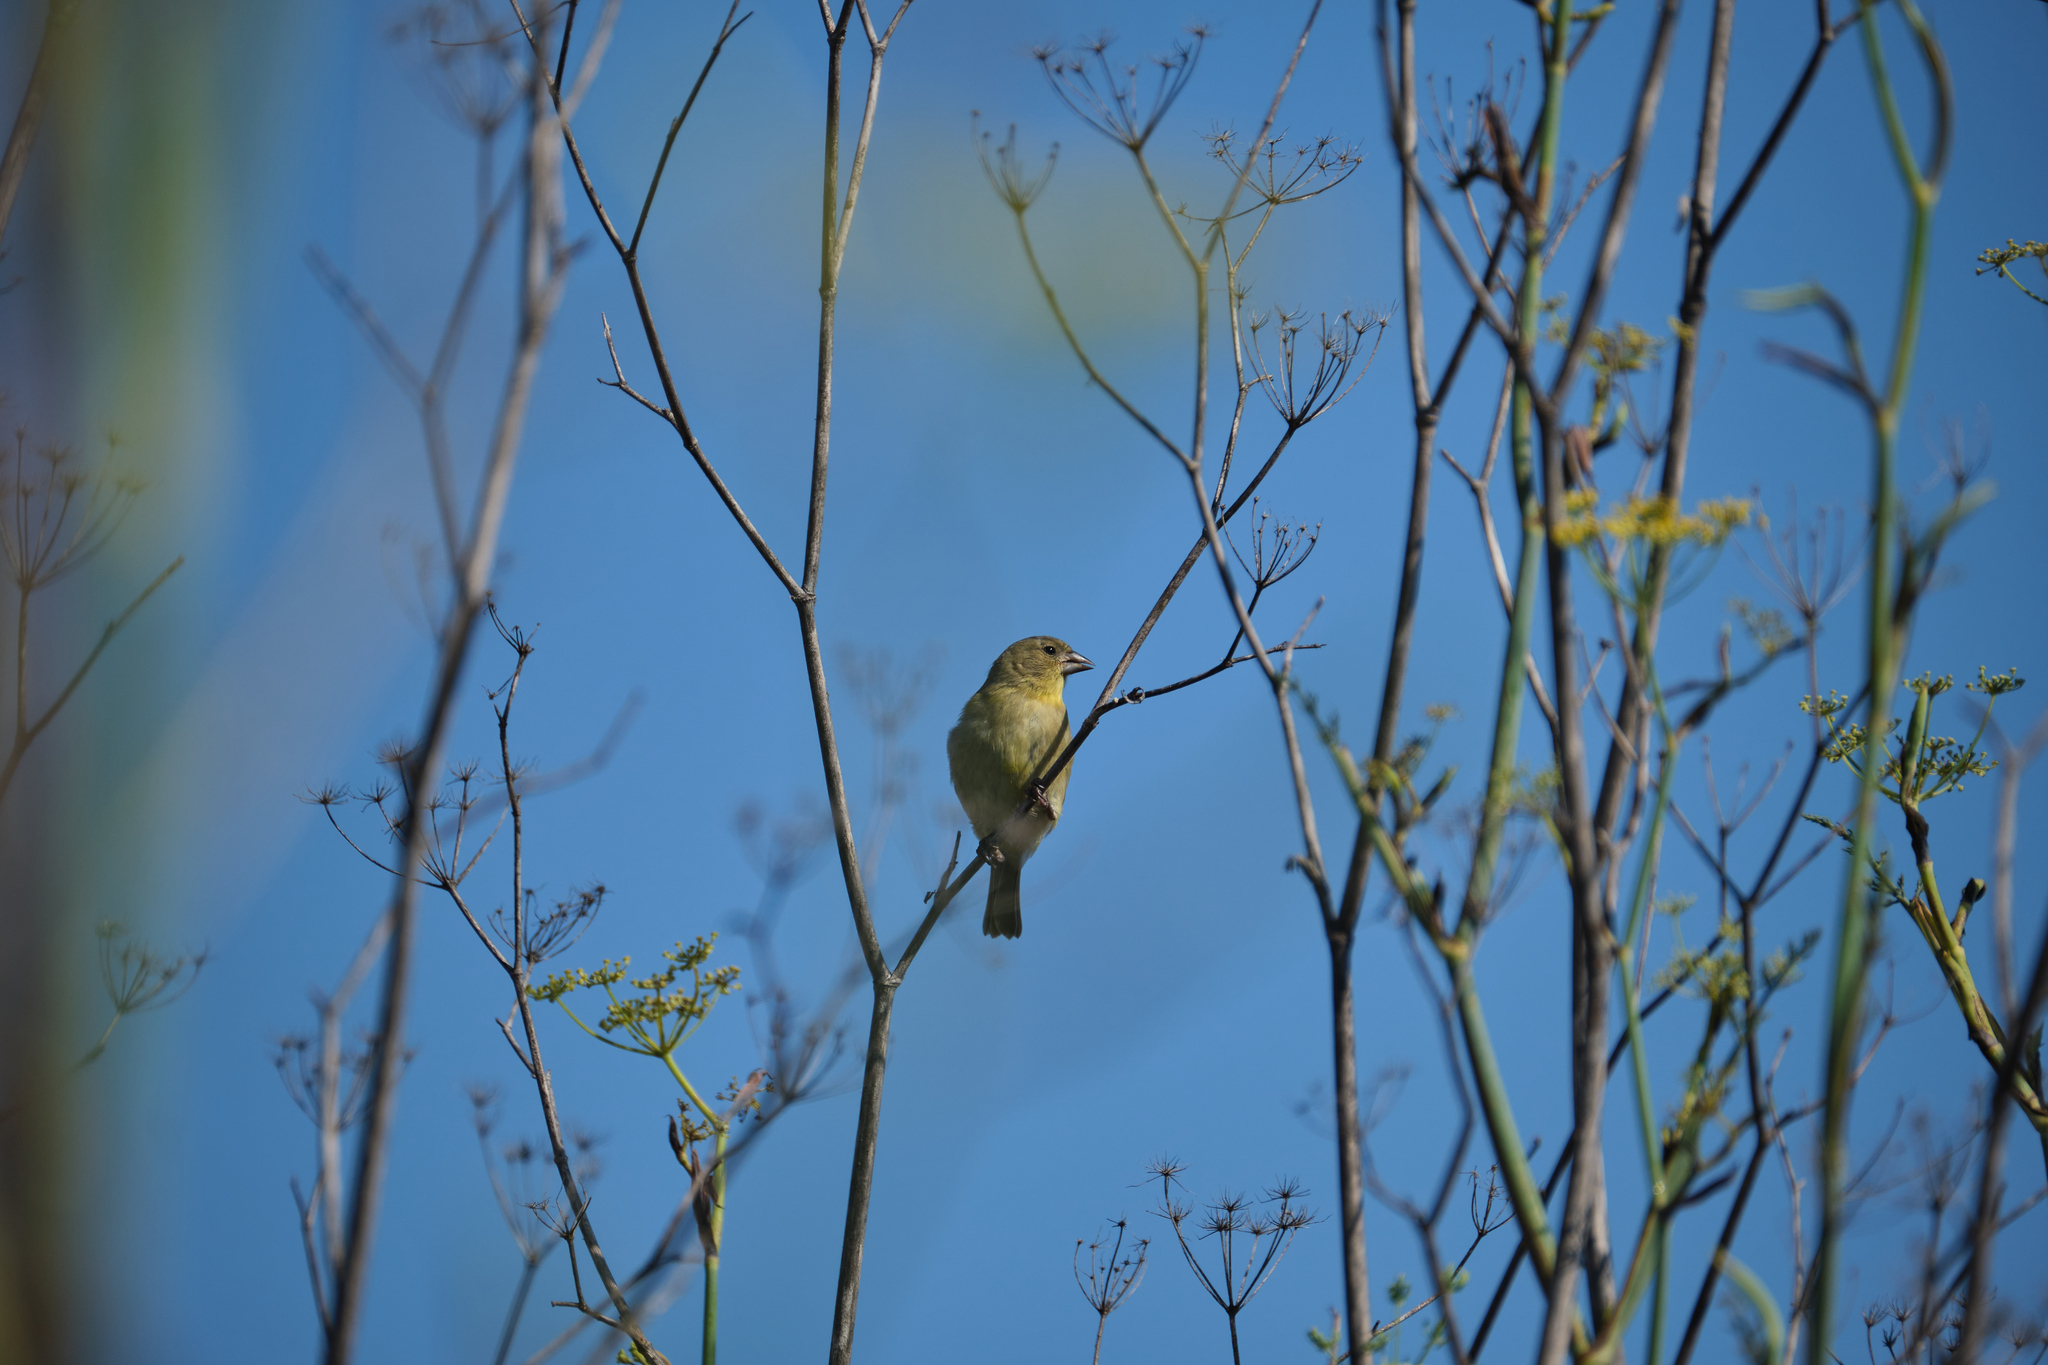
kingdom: Animalia
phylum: Chordata
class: Aves
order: Passeriformes
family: Fringillidae
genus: Spinus
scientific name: Spinus psaltria
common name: Lesser goldfinch
